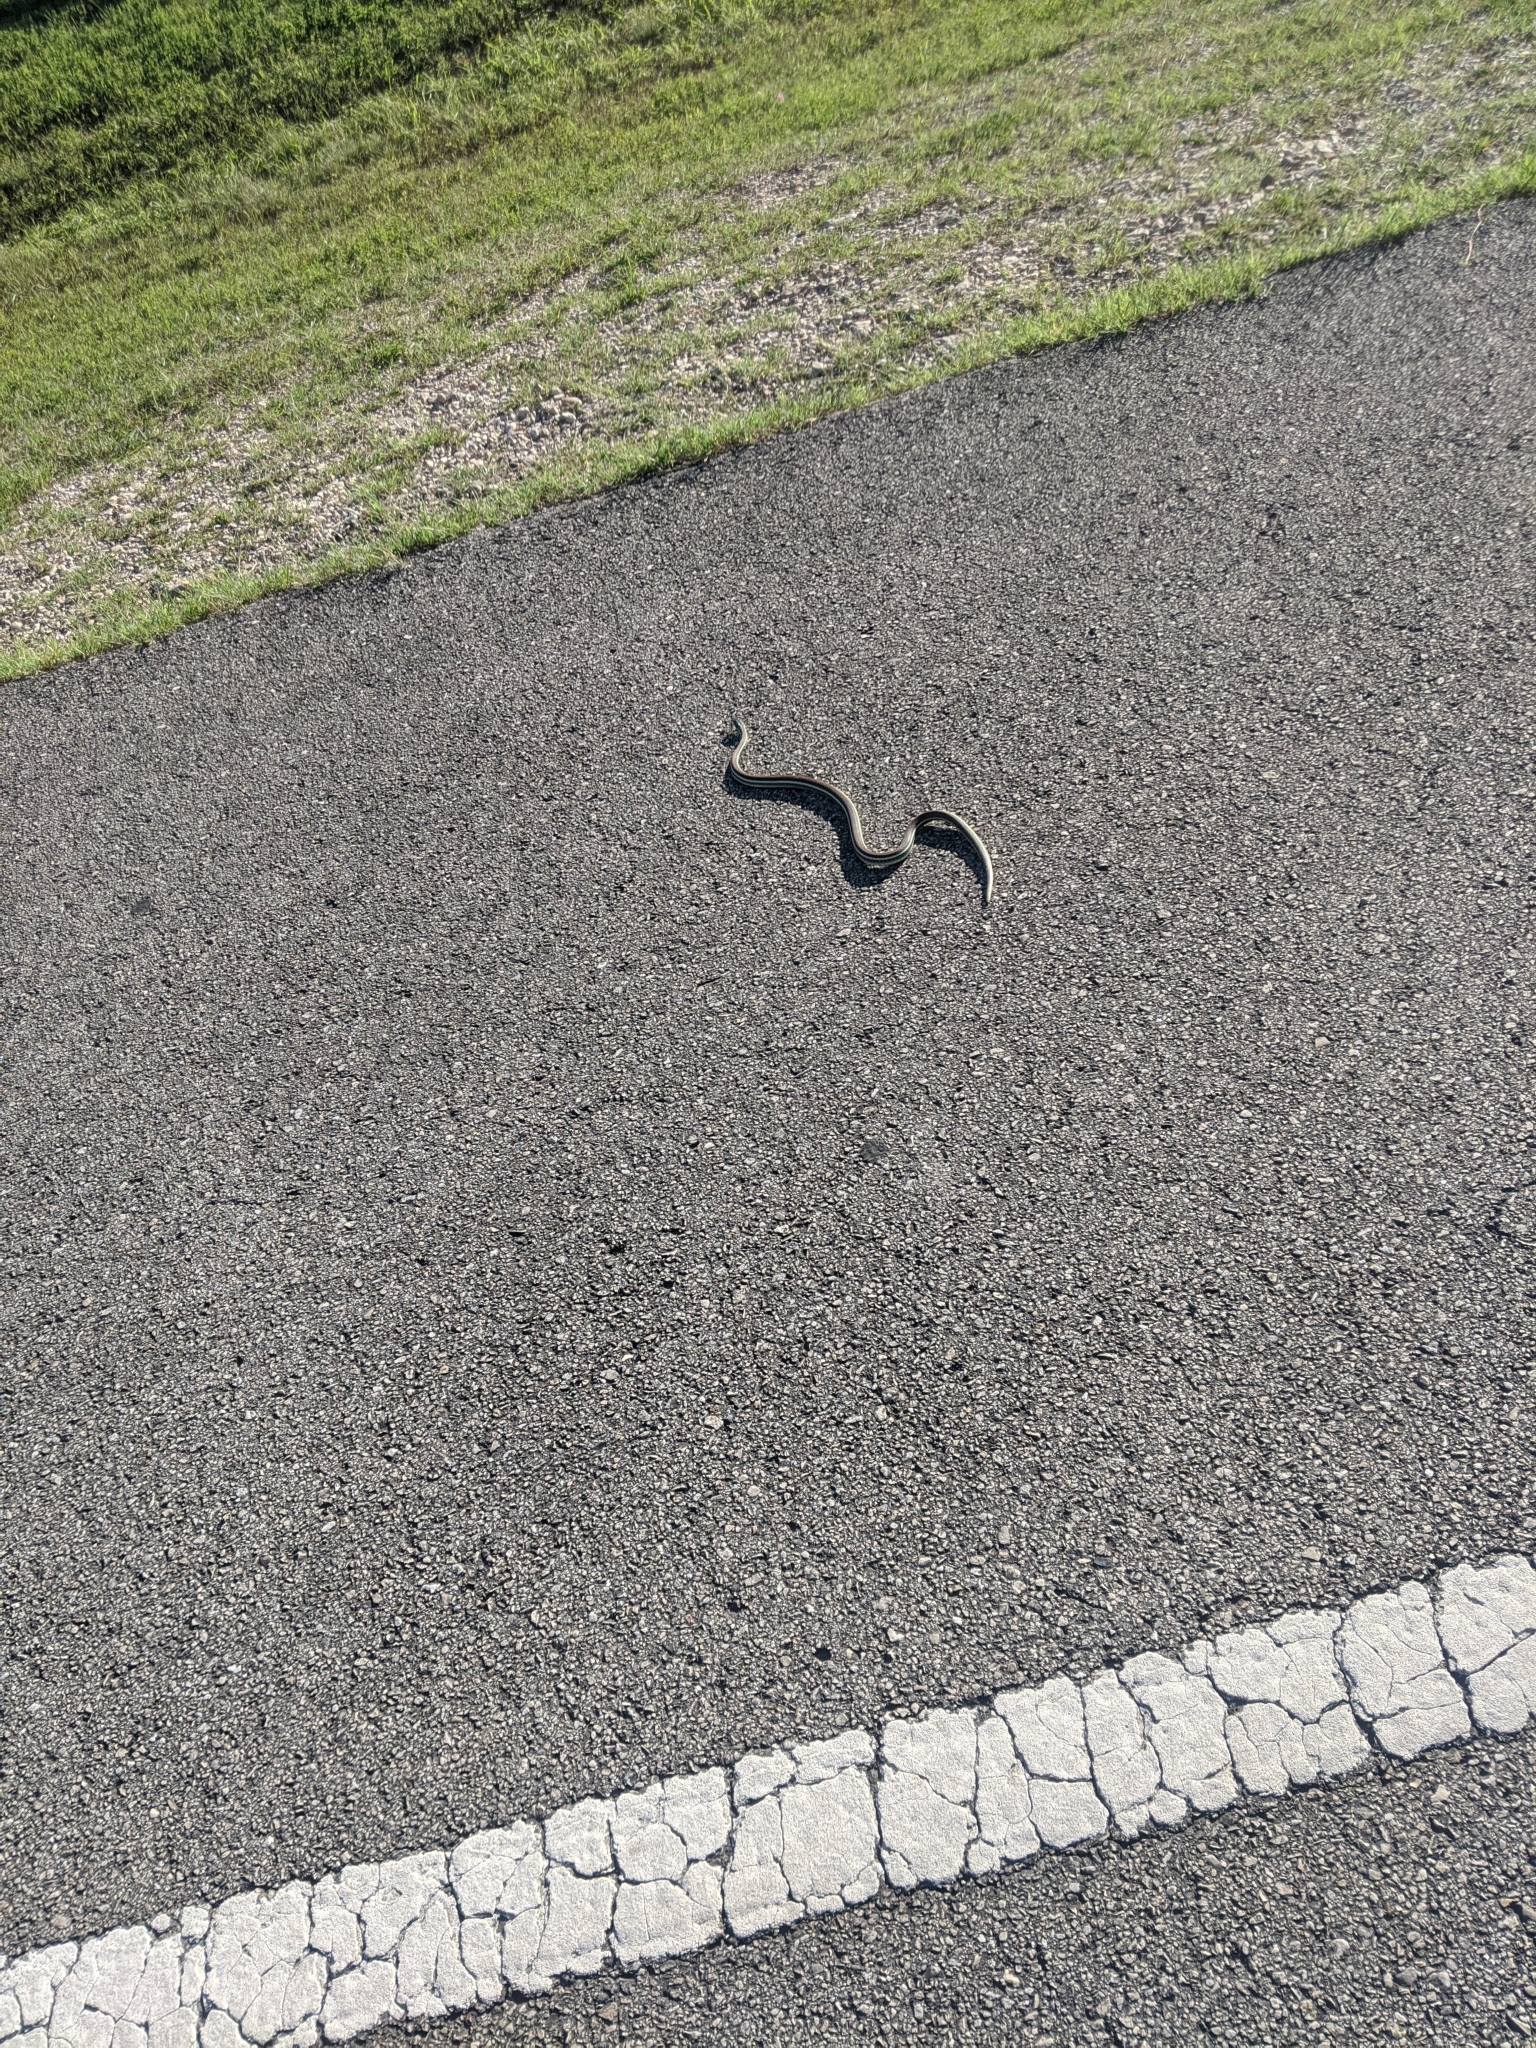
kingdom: Animalia
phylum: Chordata
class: Squamata
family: Colubridae
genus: Thamnophis
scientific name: Thamnophis proximus
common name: Western ribbon snake
